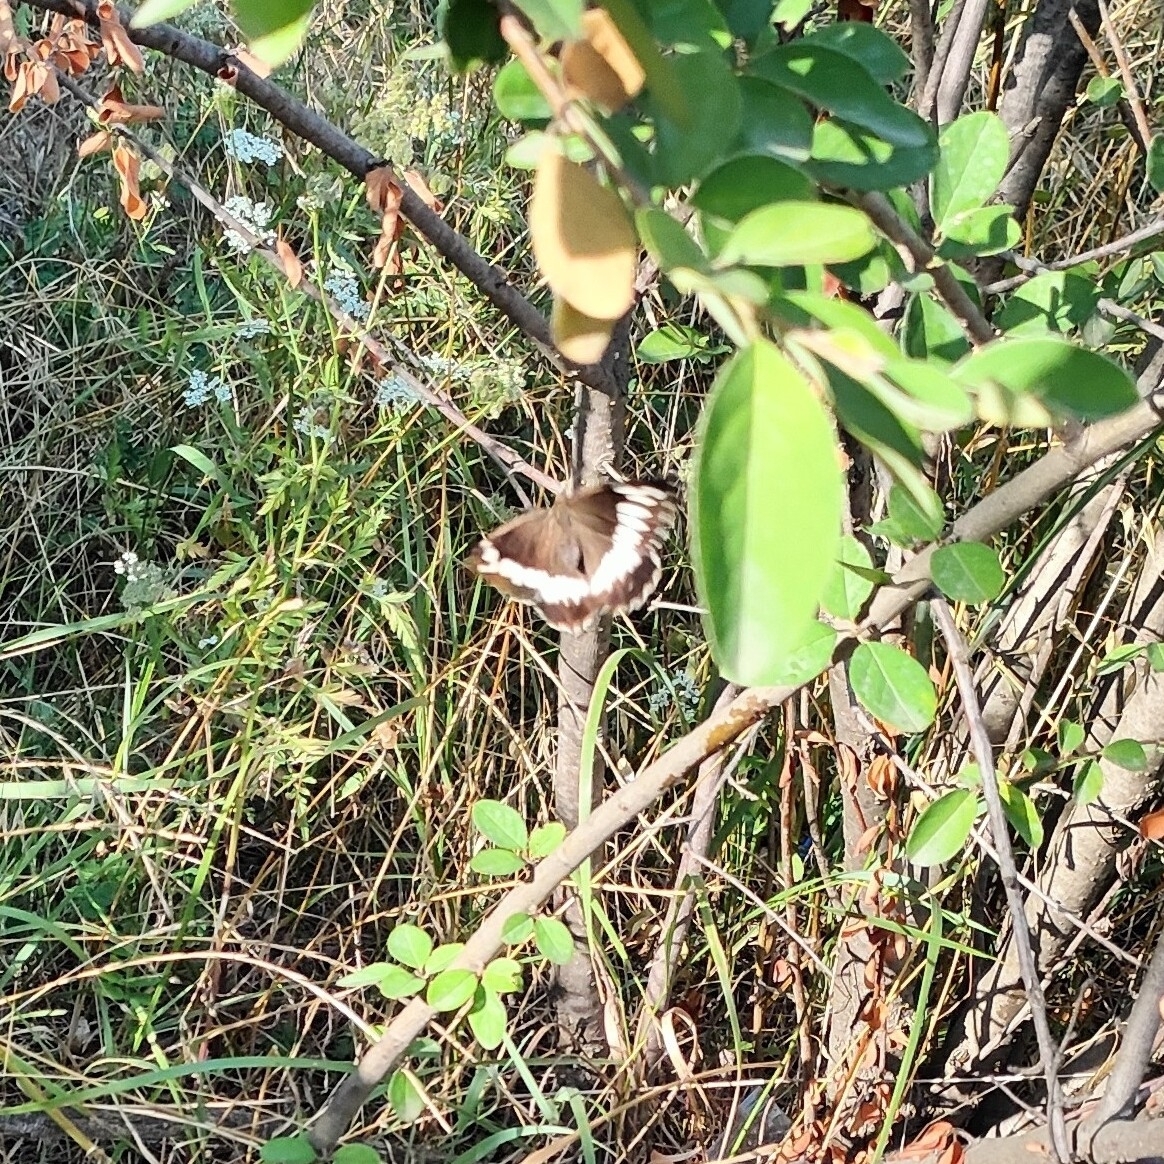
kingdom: Animalia
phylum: Arthropoda
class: Insecta
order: Lepidoptera
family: Lycaenidae
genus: Loweia
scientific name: Loweia tityrus
